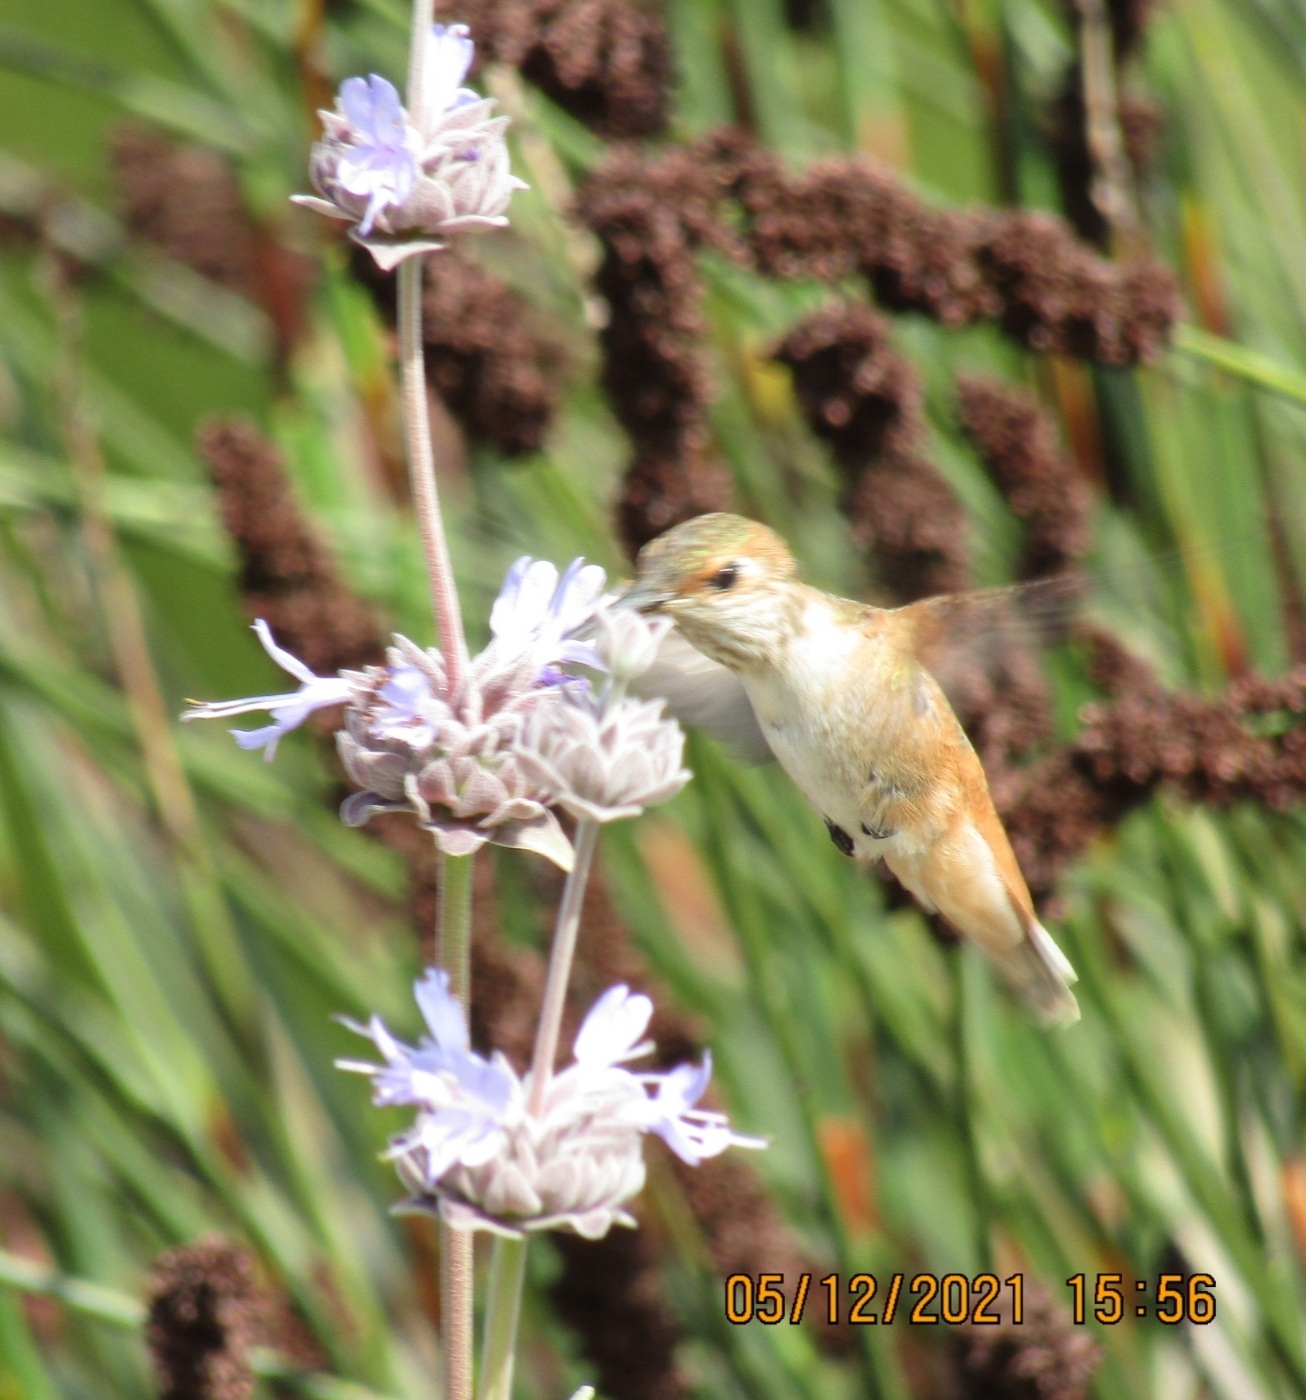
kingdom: Animalia
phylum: Chordata
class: Aves
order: Apodiformes
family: Trochilidae
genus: Selasphorus
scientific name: Selasphorus sasin
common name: Allen's hummingbird
